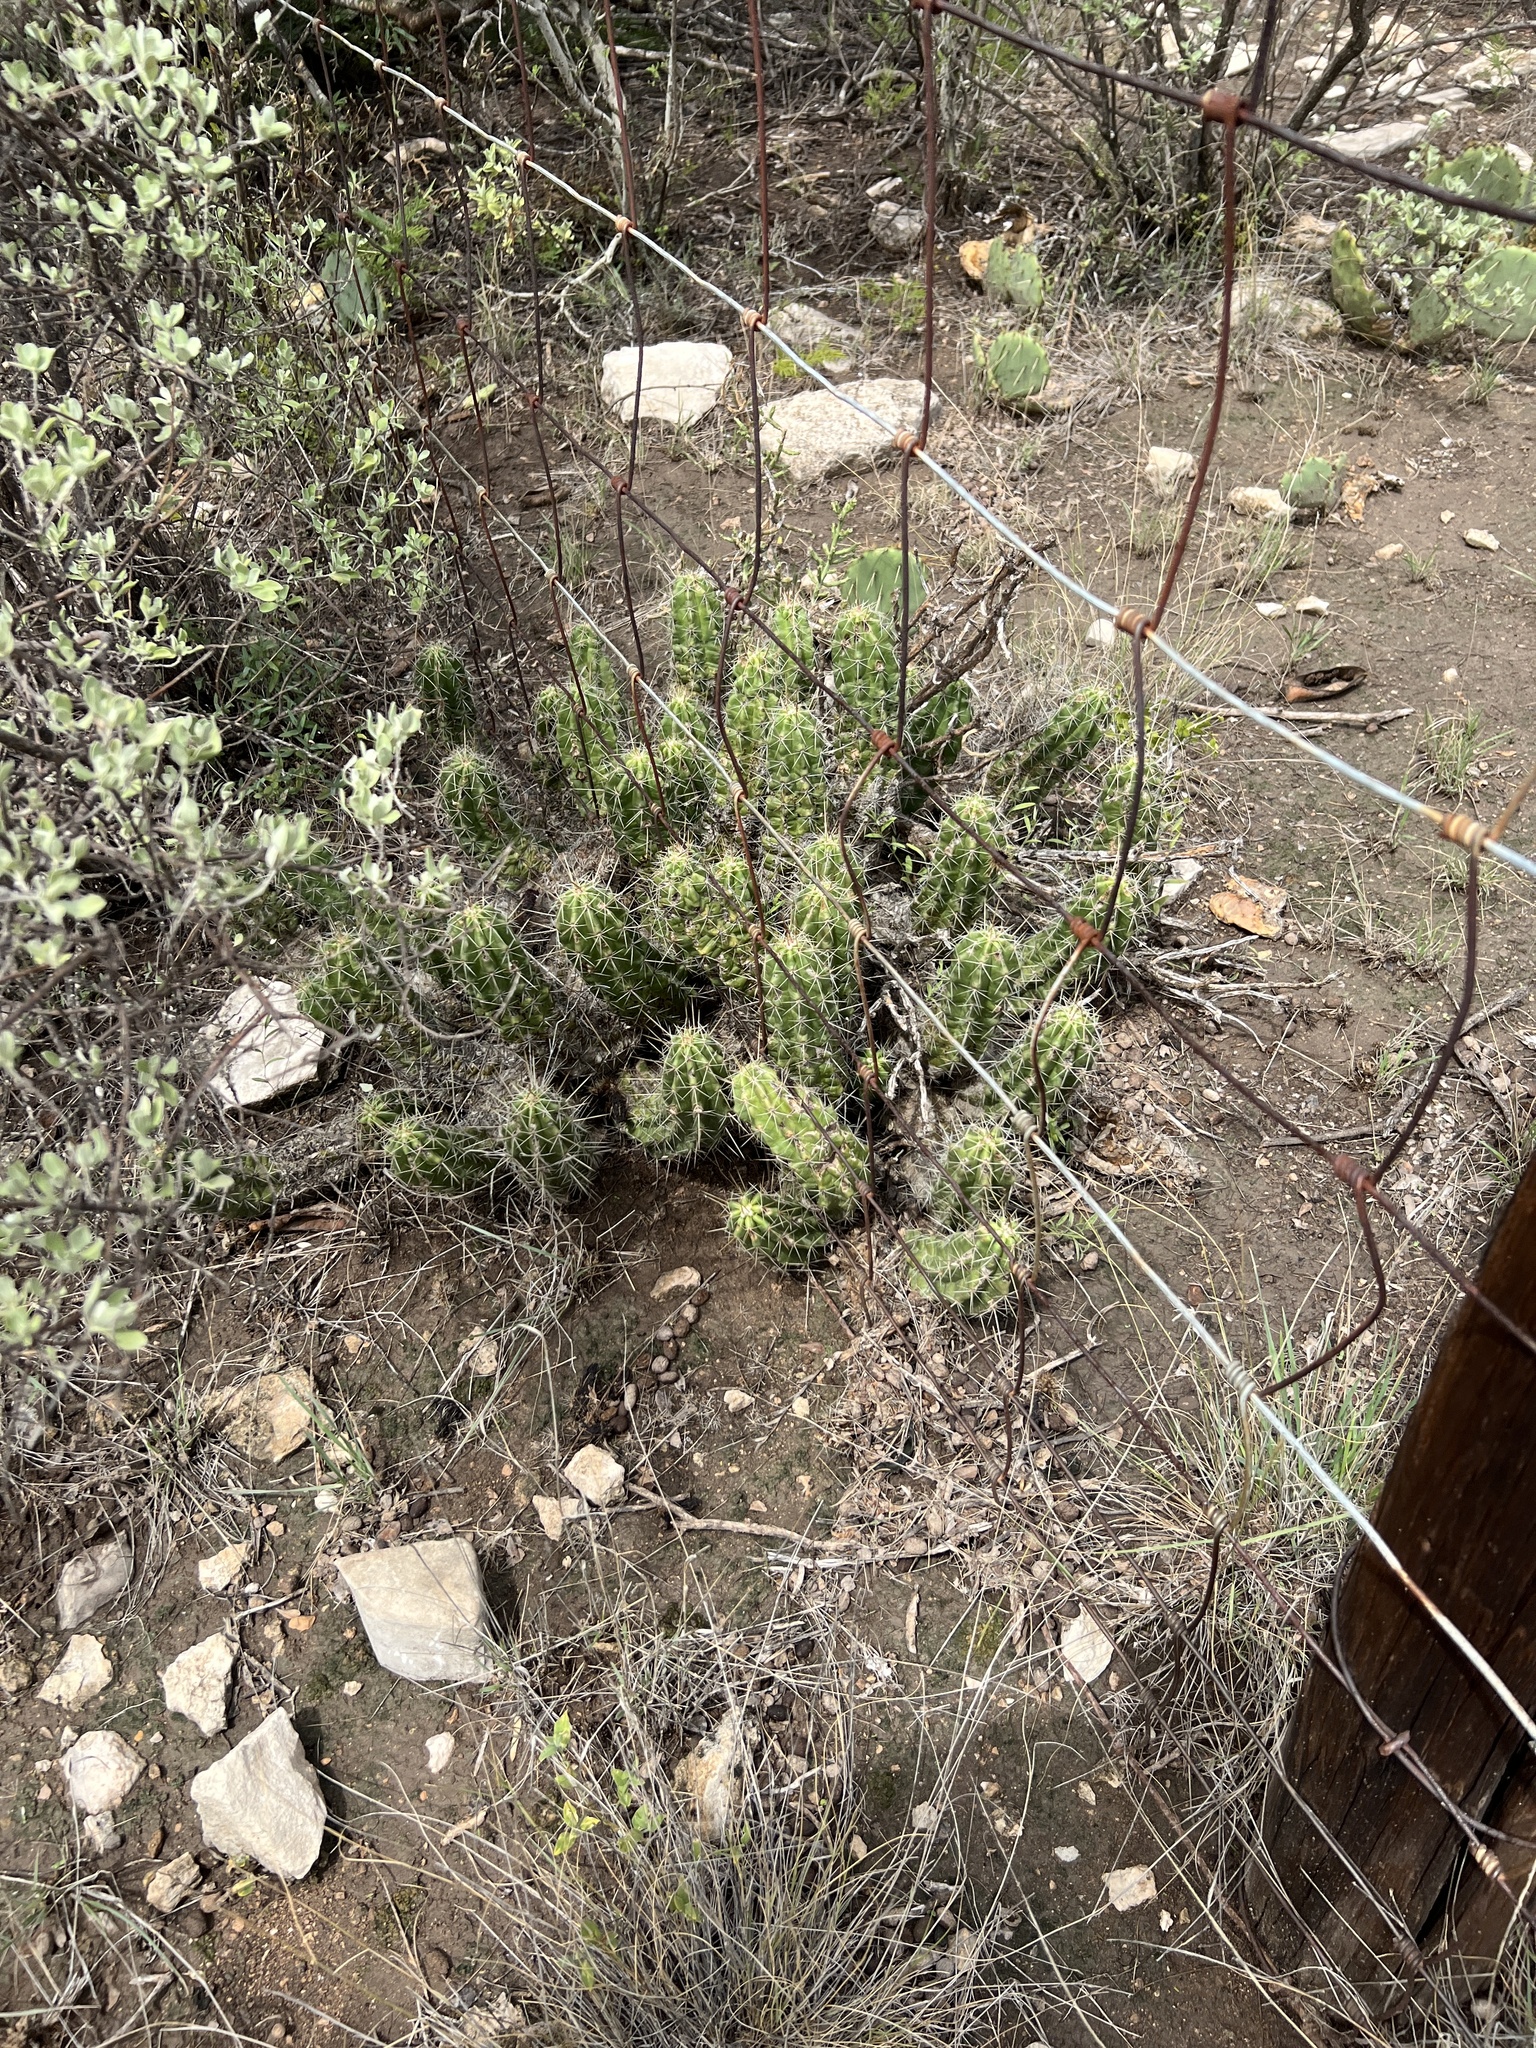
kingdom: Plantae
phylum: Tracheophyta
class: Magnoliopsida
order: Caryophyllales
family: Cactaceae
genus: Echinocereus
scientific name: Echinocereus enneacanthus
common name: Pitaya
